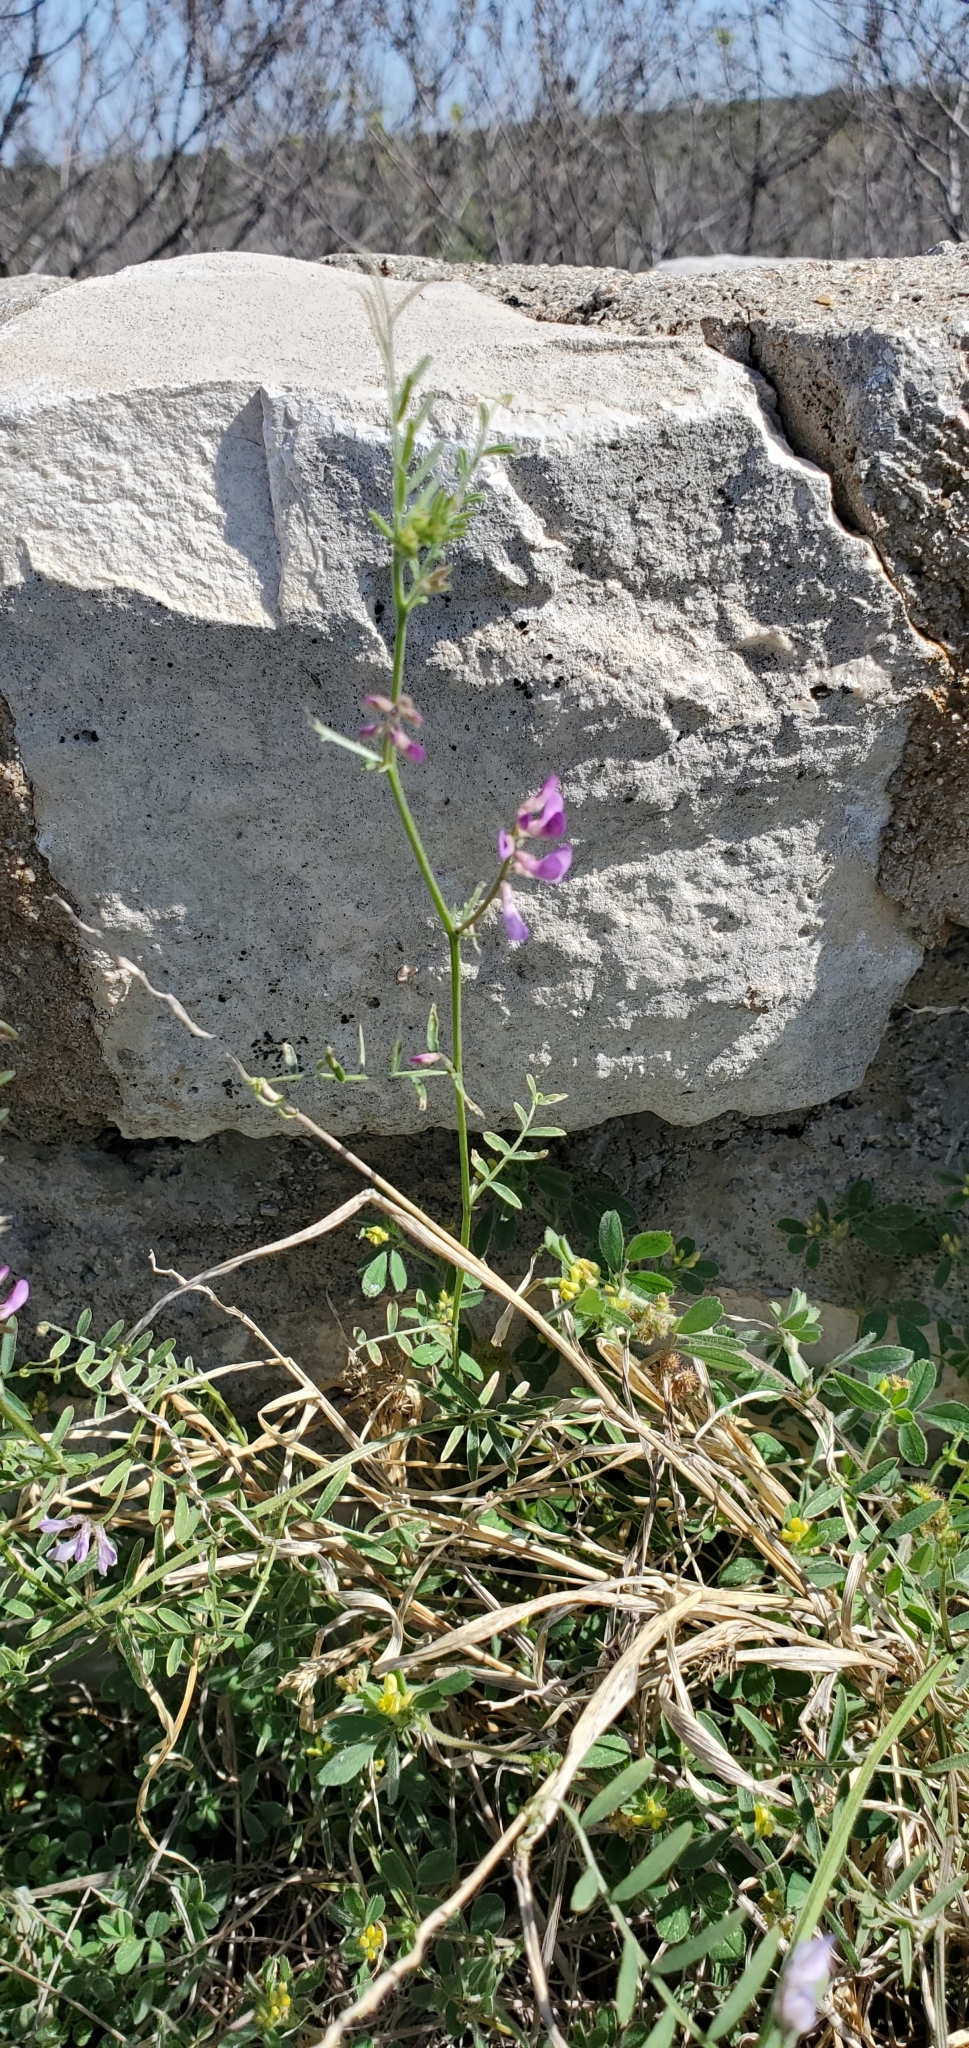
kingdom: Plantae
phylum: Tracheophyta
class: Magnoliopsida
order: Fabales
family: Fabaceae
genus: Vicia
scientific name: Vicia ludoviciana
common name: Louisiana vetch
